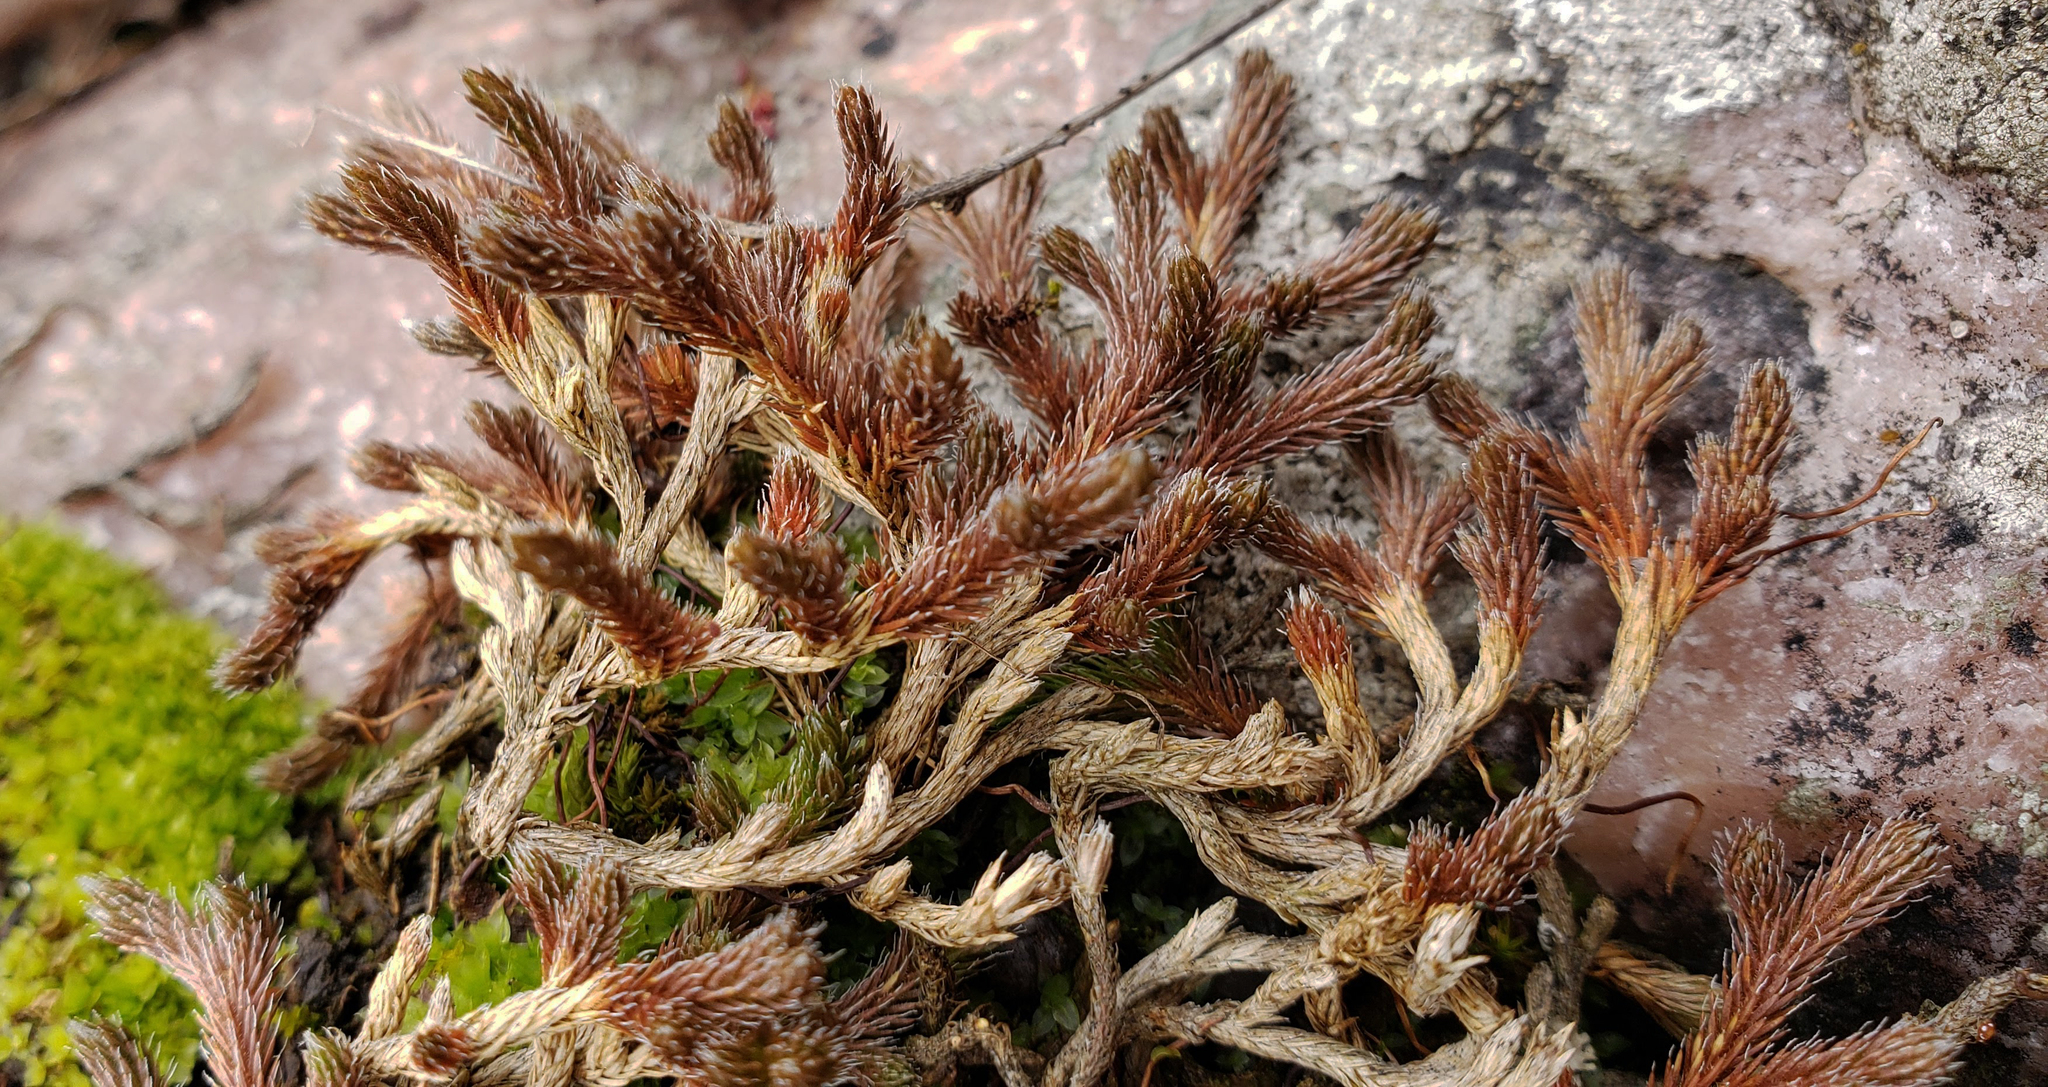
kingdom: Plantae
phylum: Tracheophyta
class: Lycopodiopsida
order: Selaginellales
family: Selaginellaceae
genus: Selaginella
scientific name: Selaginella rupestris
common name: Dwarf spikemoss
